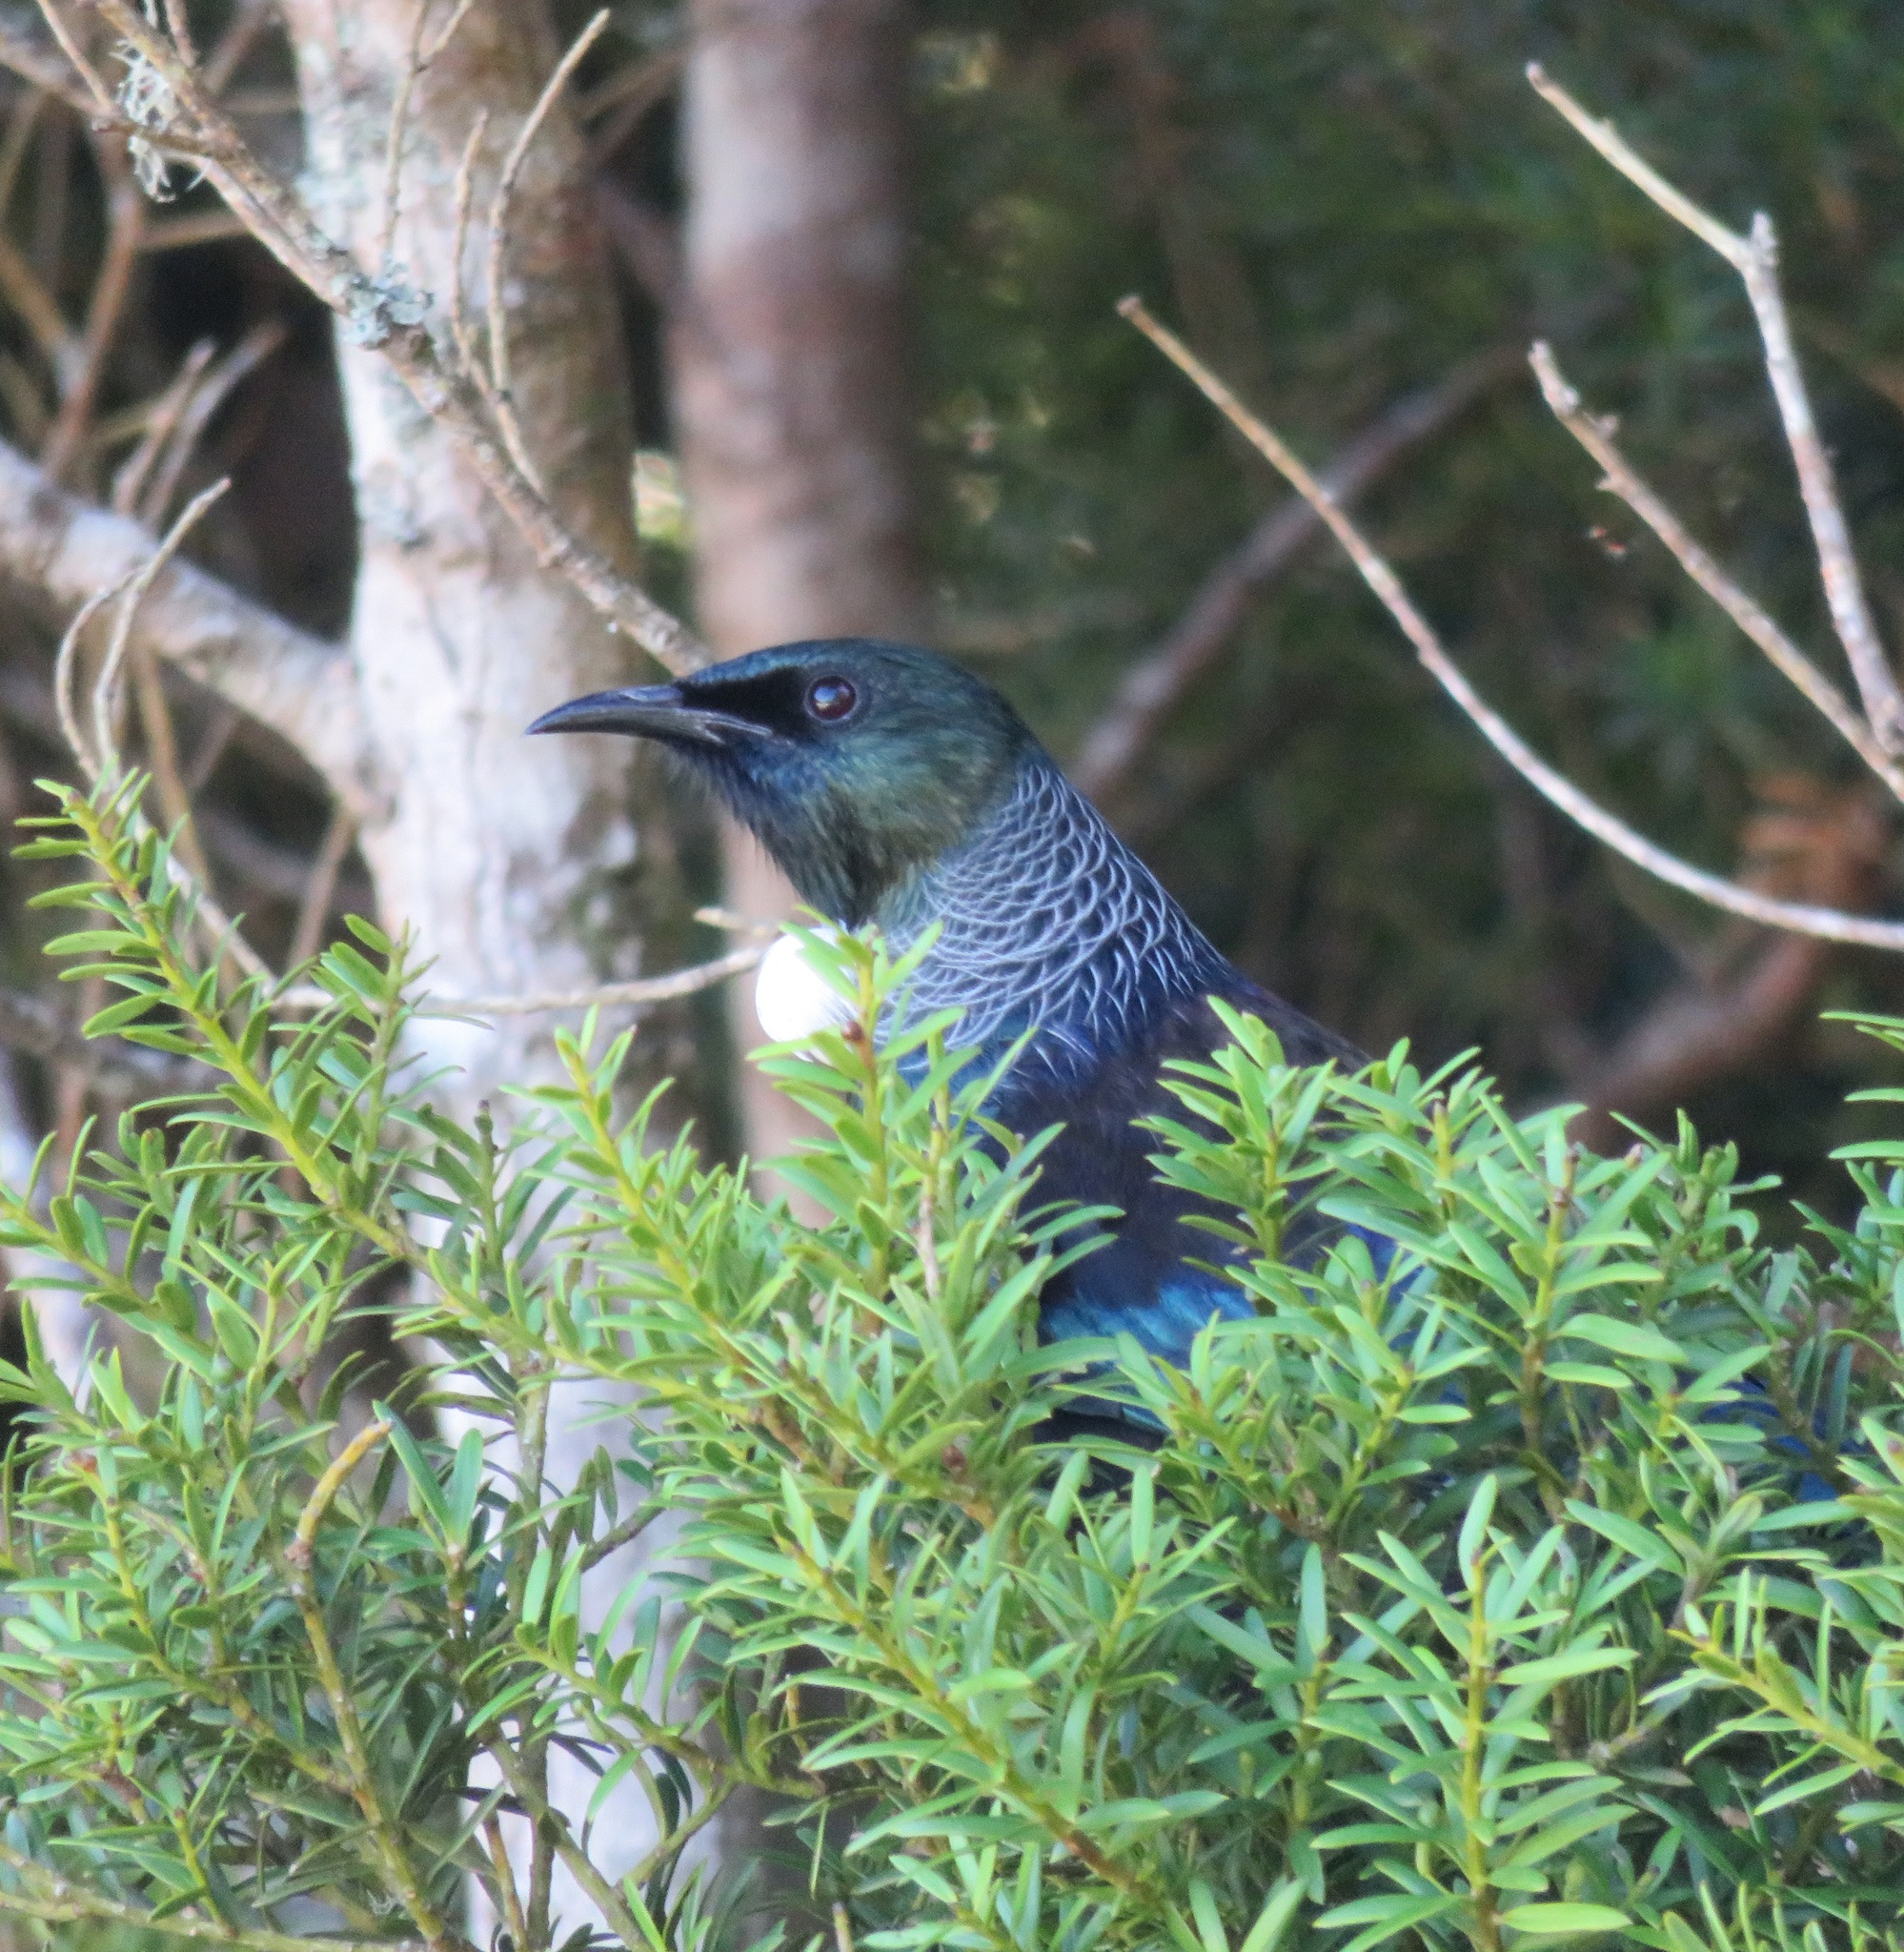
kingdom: Animalia
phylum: Chordata
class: Aves
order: Passeriformes
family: Meliphagidae
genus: Prosthemadera
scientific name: Prosthemadera novaeseelandiae
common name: Tui
